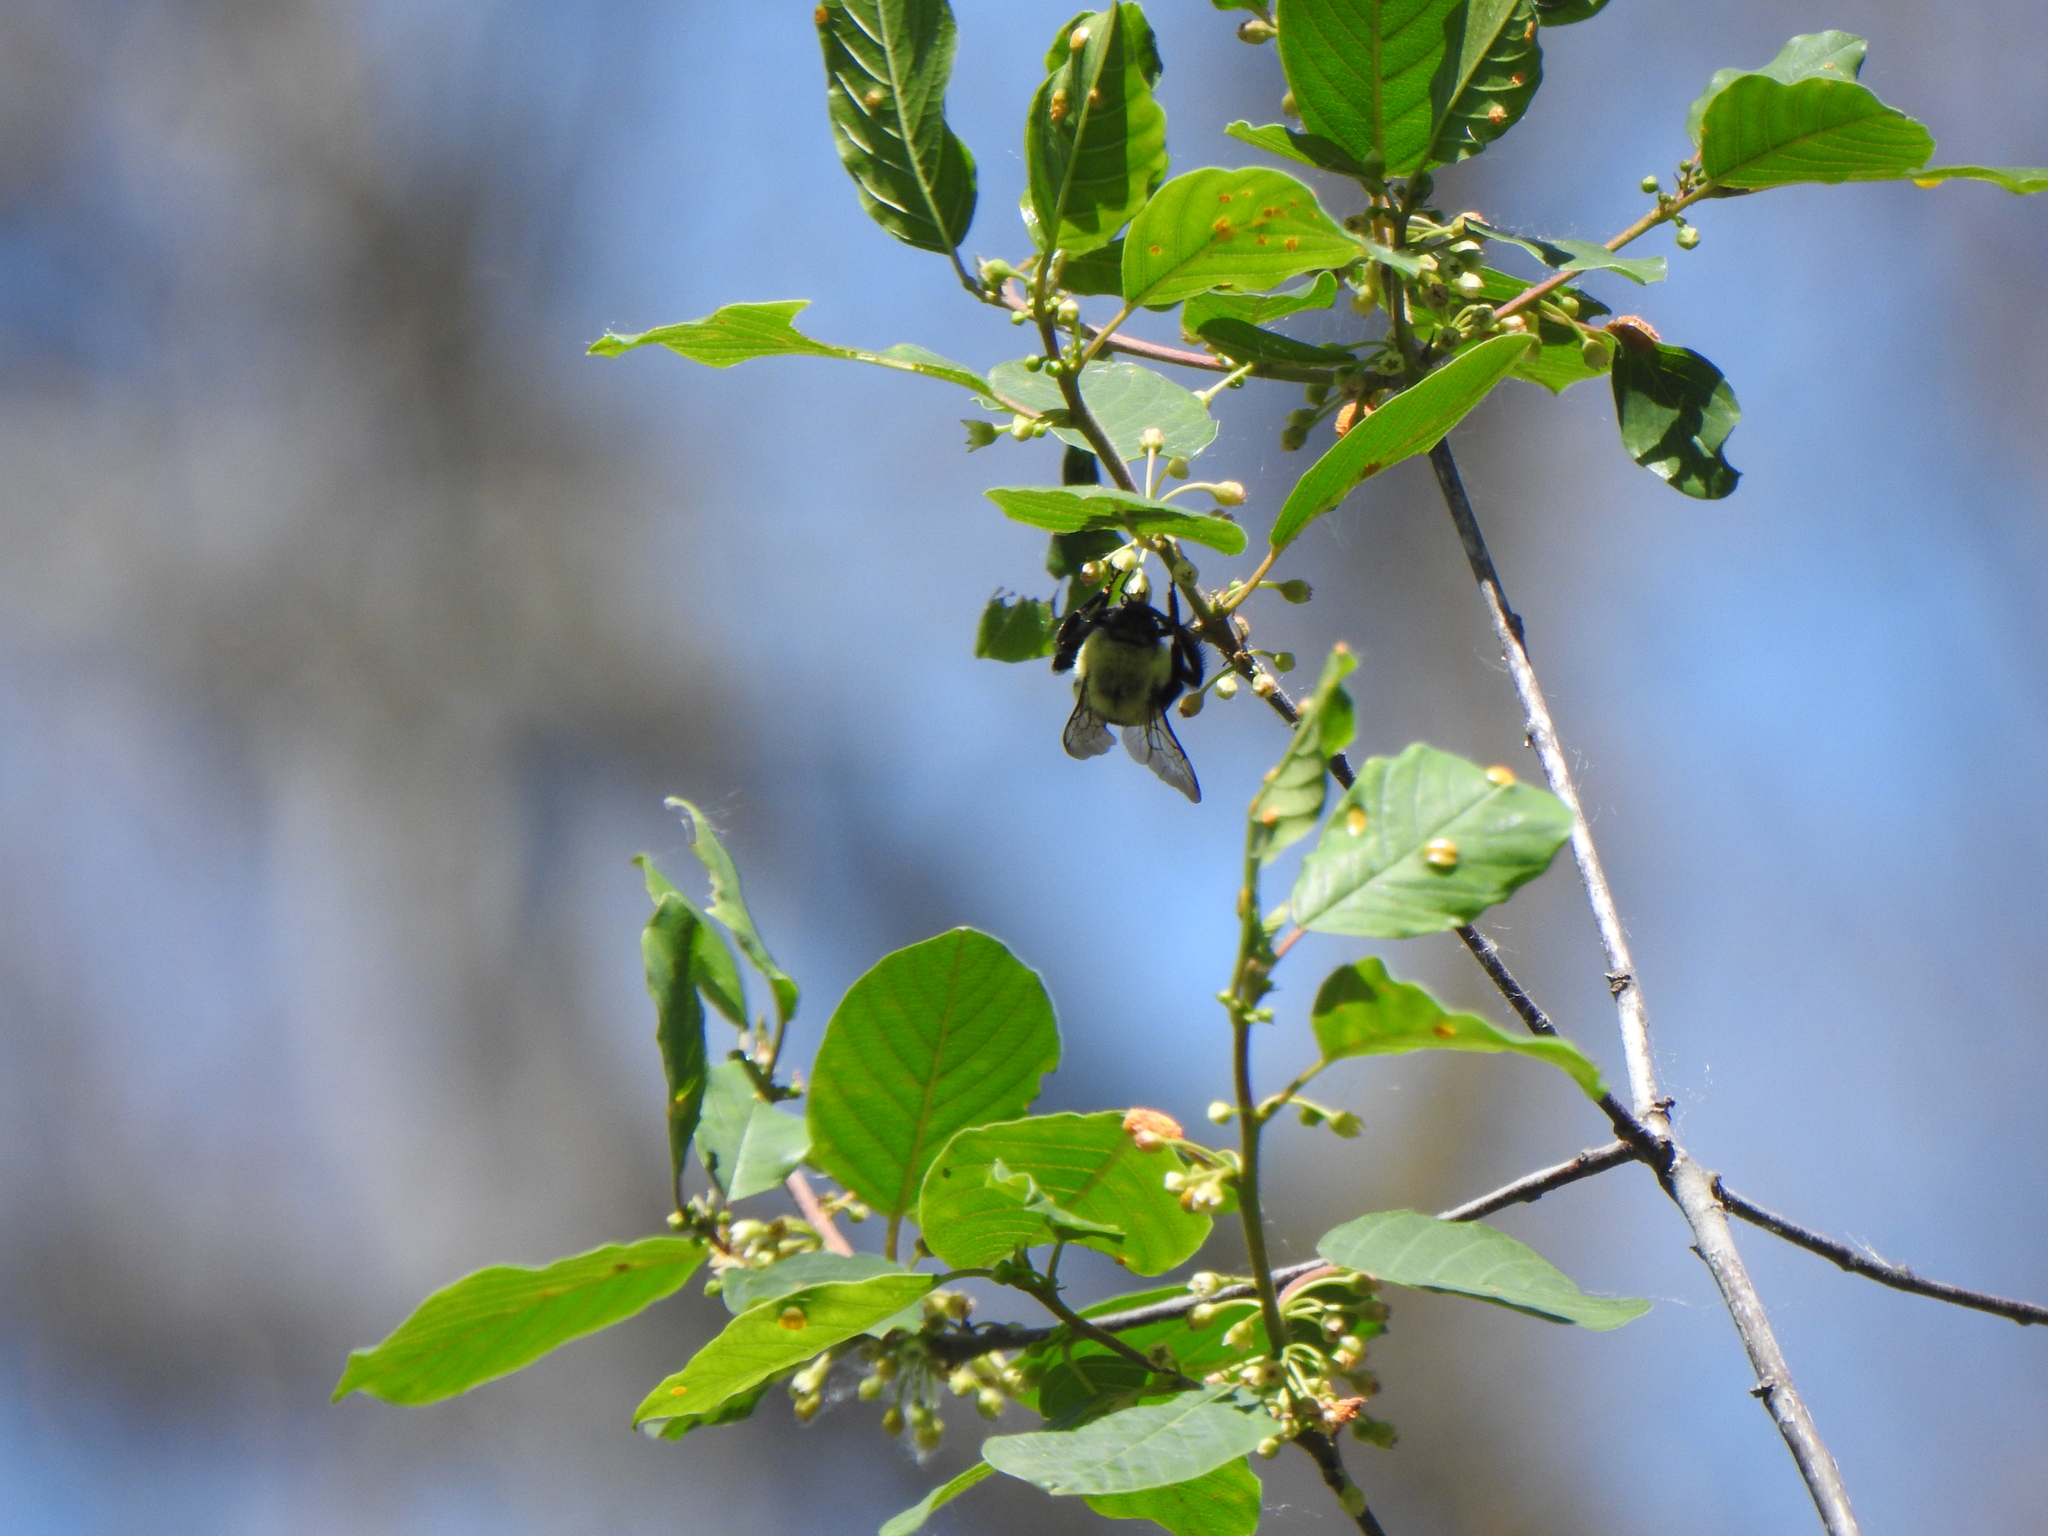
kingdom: Animalia
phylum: Arthropoda
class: Insecta
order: Hymenoptera
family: Apidae
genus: Bombus
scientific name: Bombus impatiens
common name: Common eastern bumble bee
